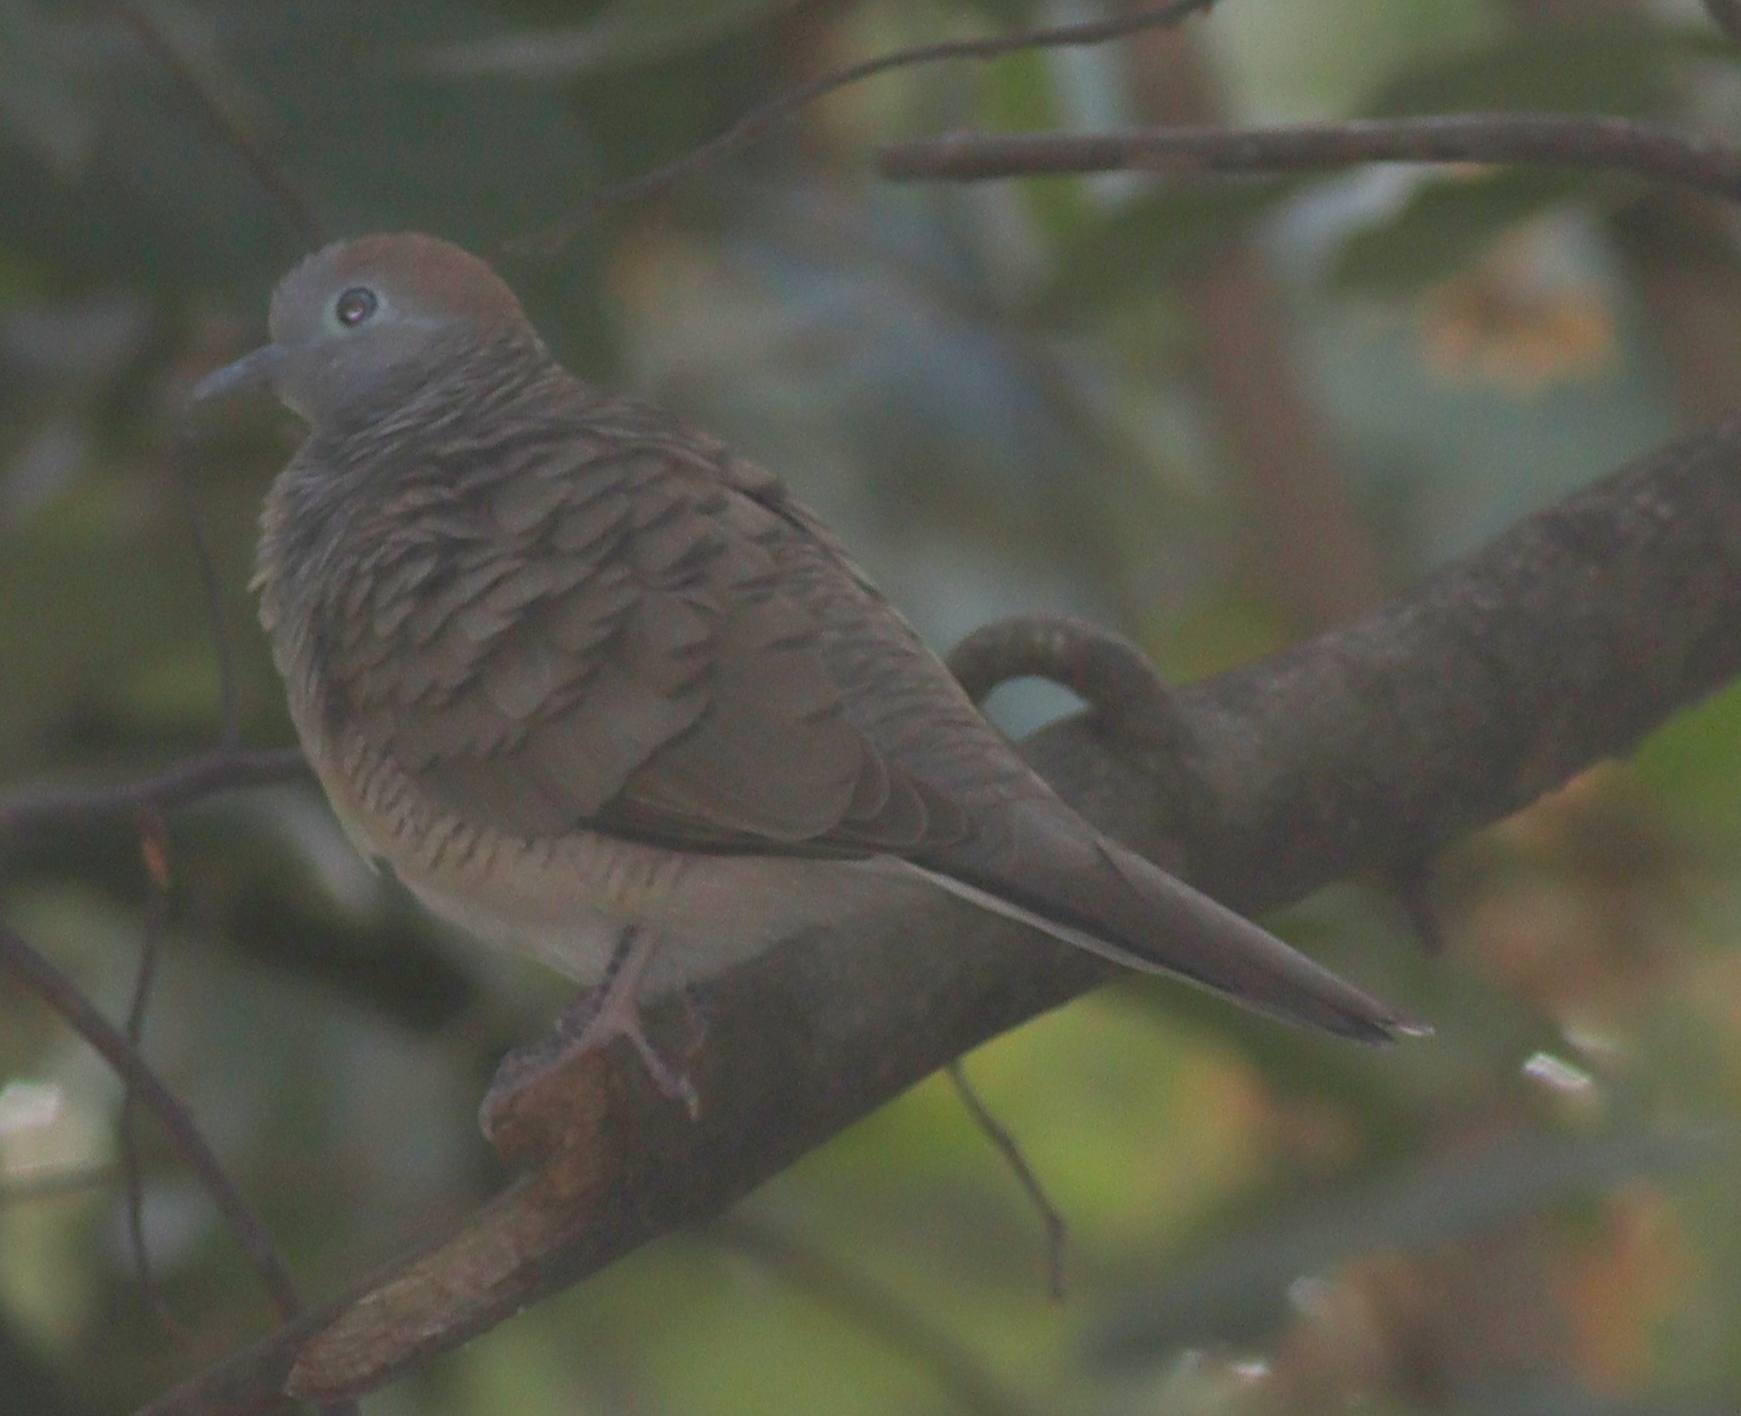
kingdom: Animalia
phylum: Chordata
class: Aves
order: Columbiformes
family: Columbidae
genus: Geopelia
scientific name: Geopelia striata
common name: Zebra dove
